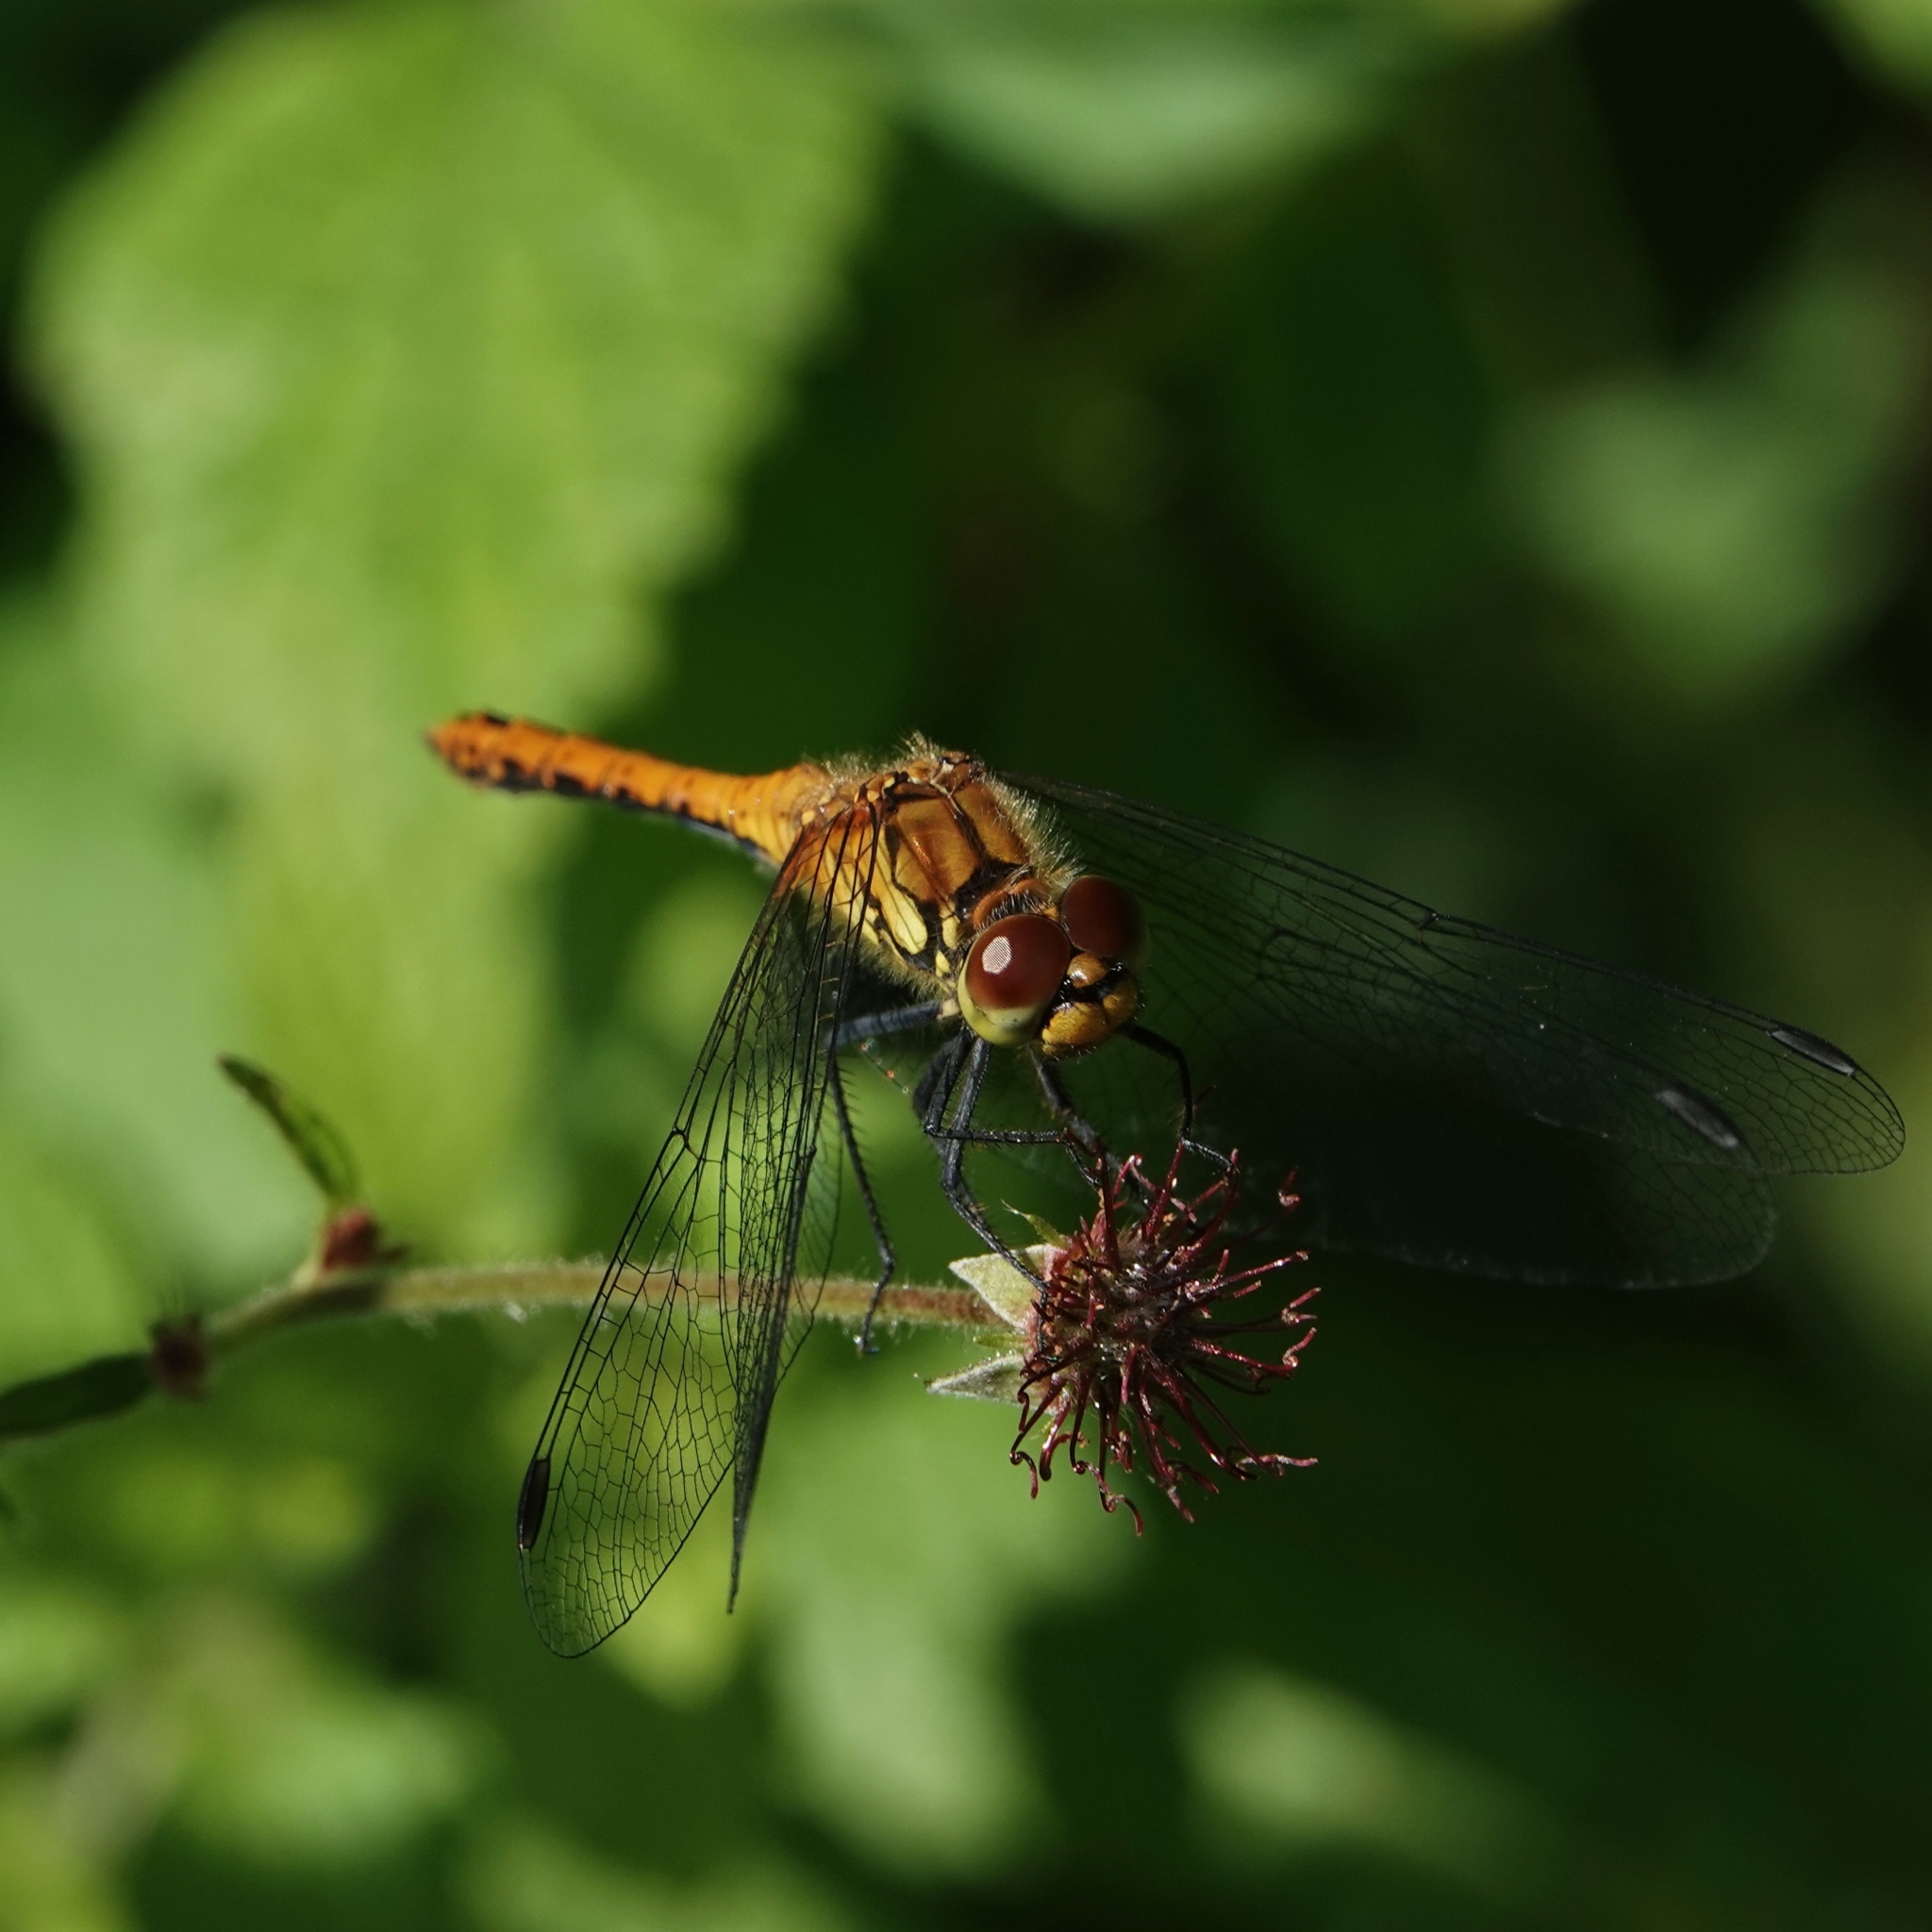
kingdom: Animalia
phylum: Arthropoda
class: Insecta
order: Odonata
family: Libellulidae
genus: Sympetrum
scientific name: Sympetrum sanguineum
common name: Ruddy darter
